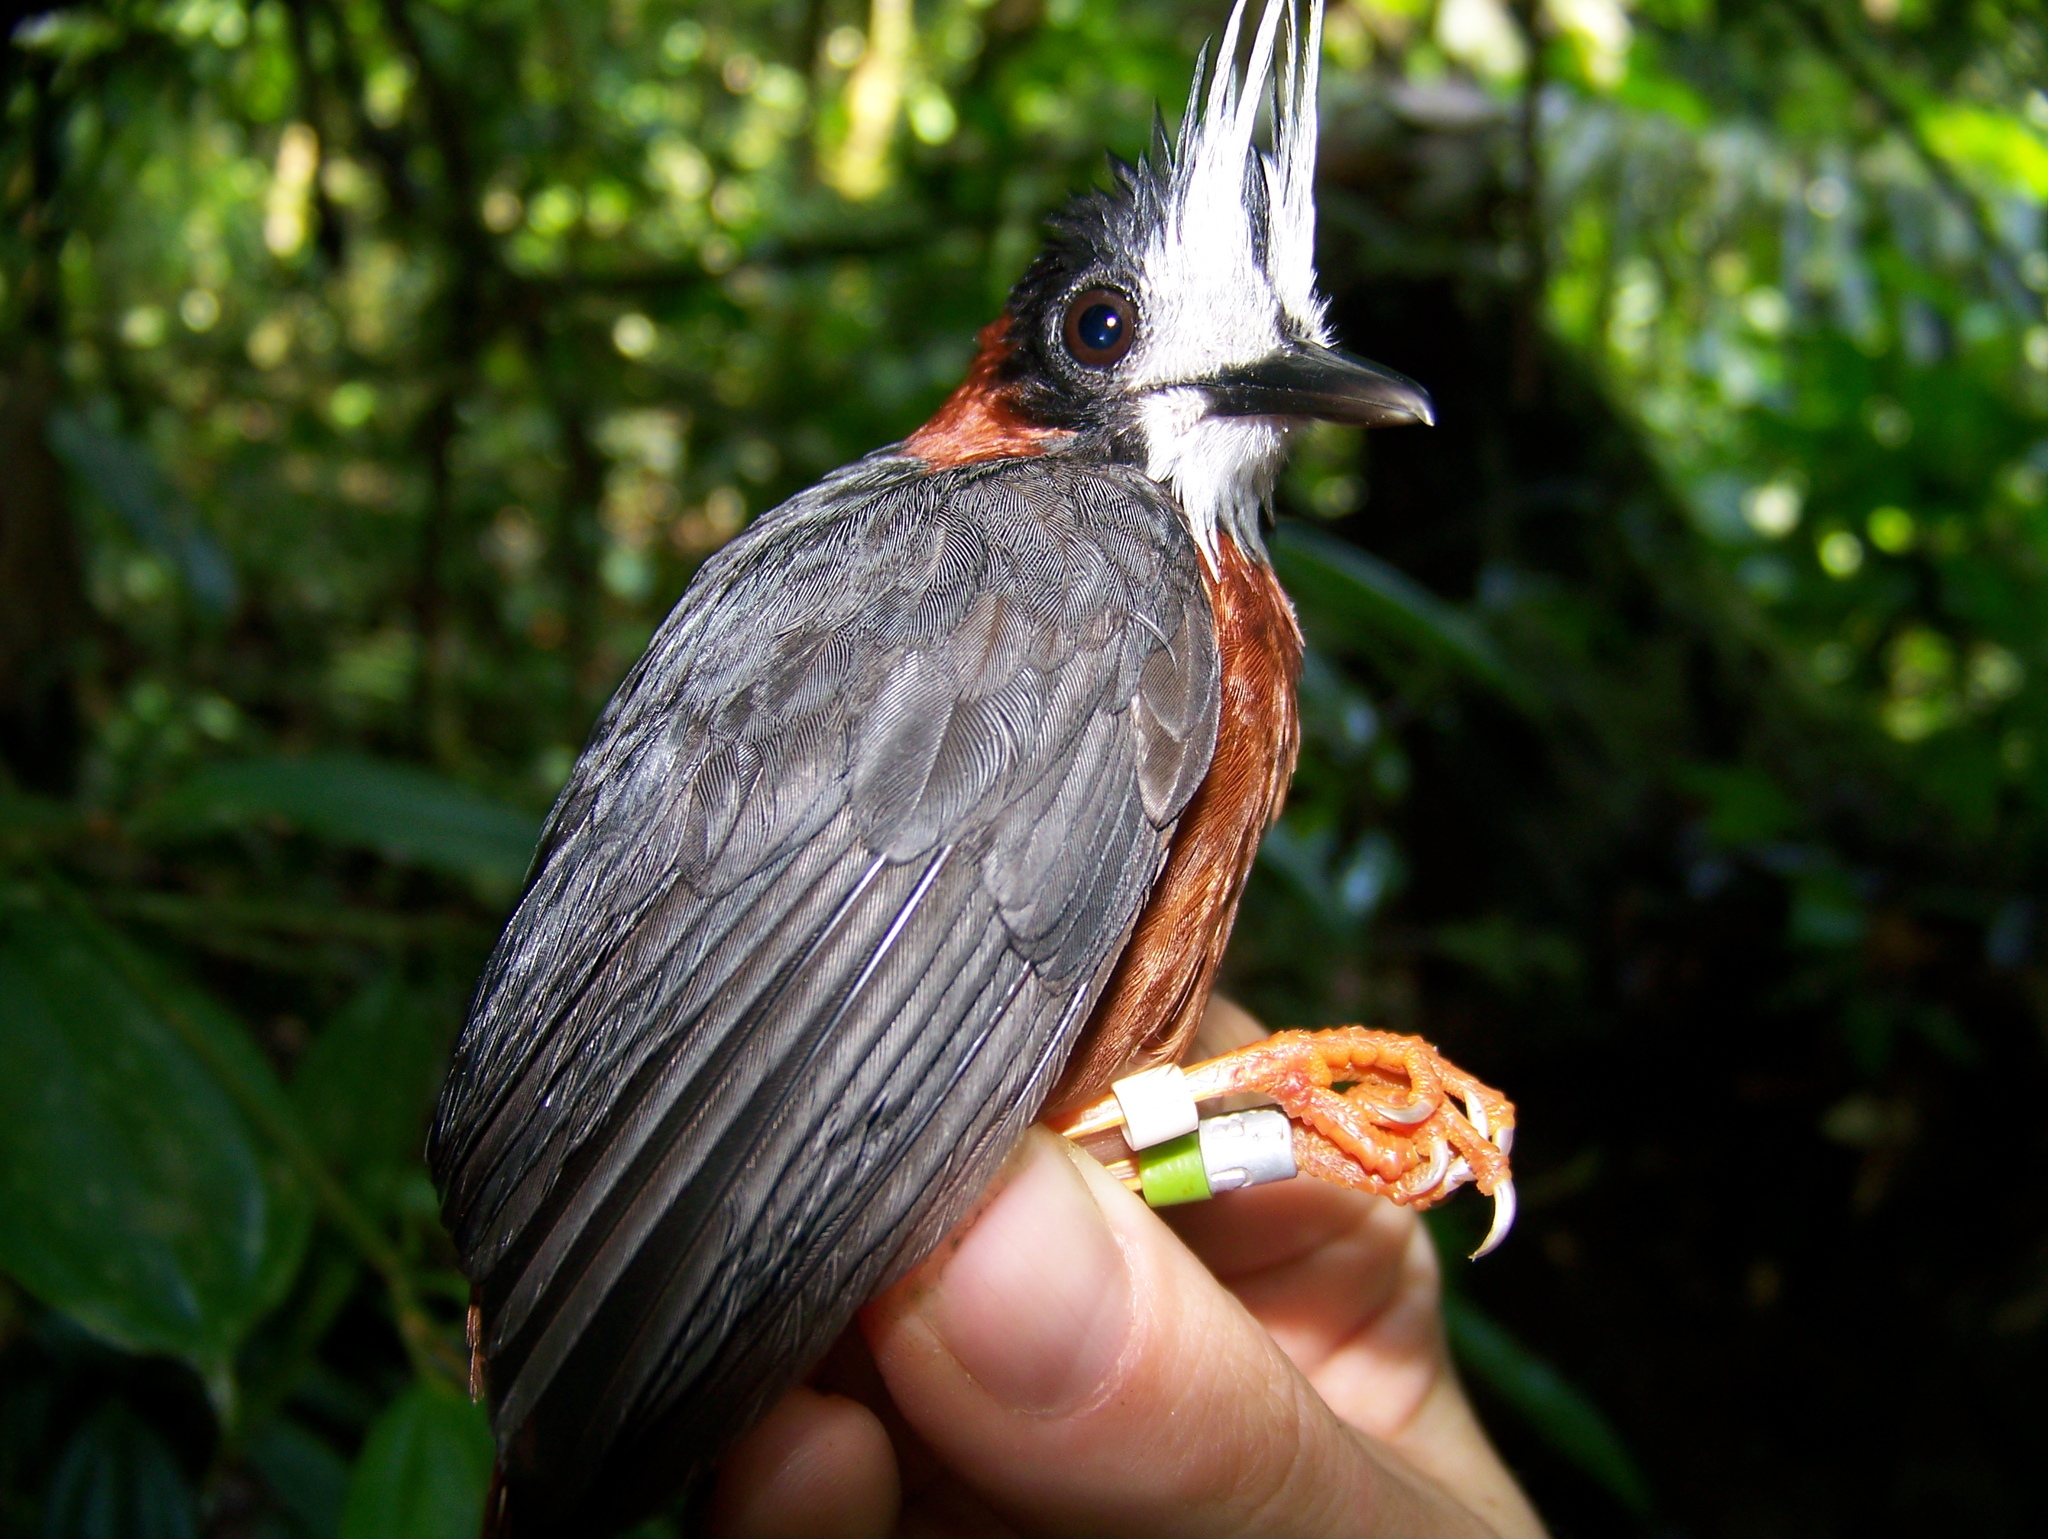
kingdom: Animalia
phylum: Chordata
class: Aves
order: Passeriformes
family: Thamnophilidae
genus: Pithys
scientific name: Pithys albifrons
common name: White-plumed antbird
